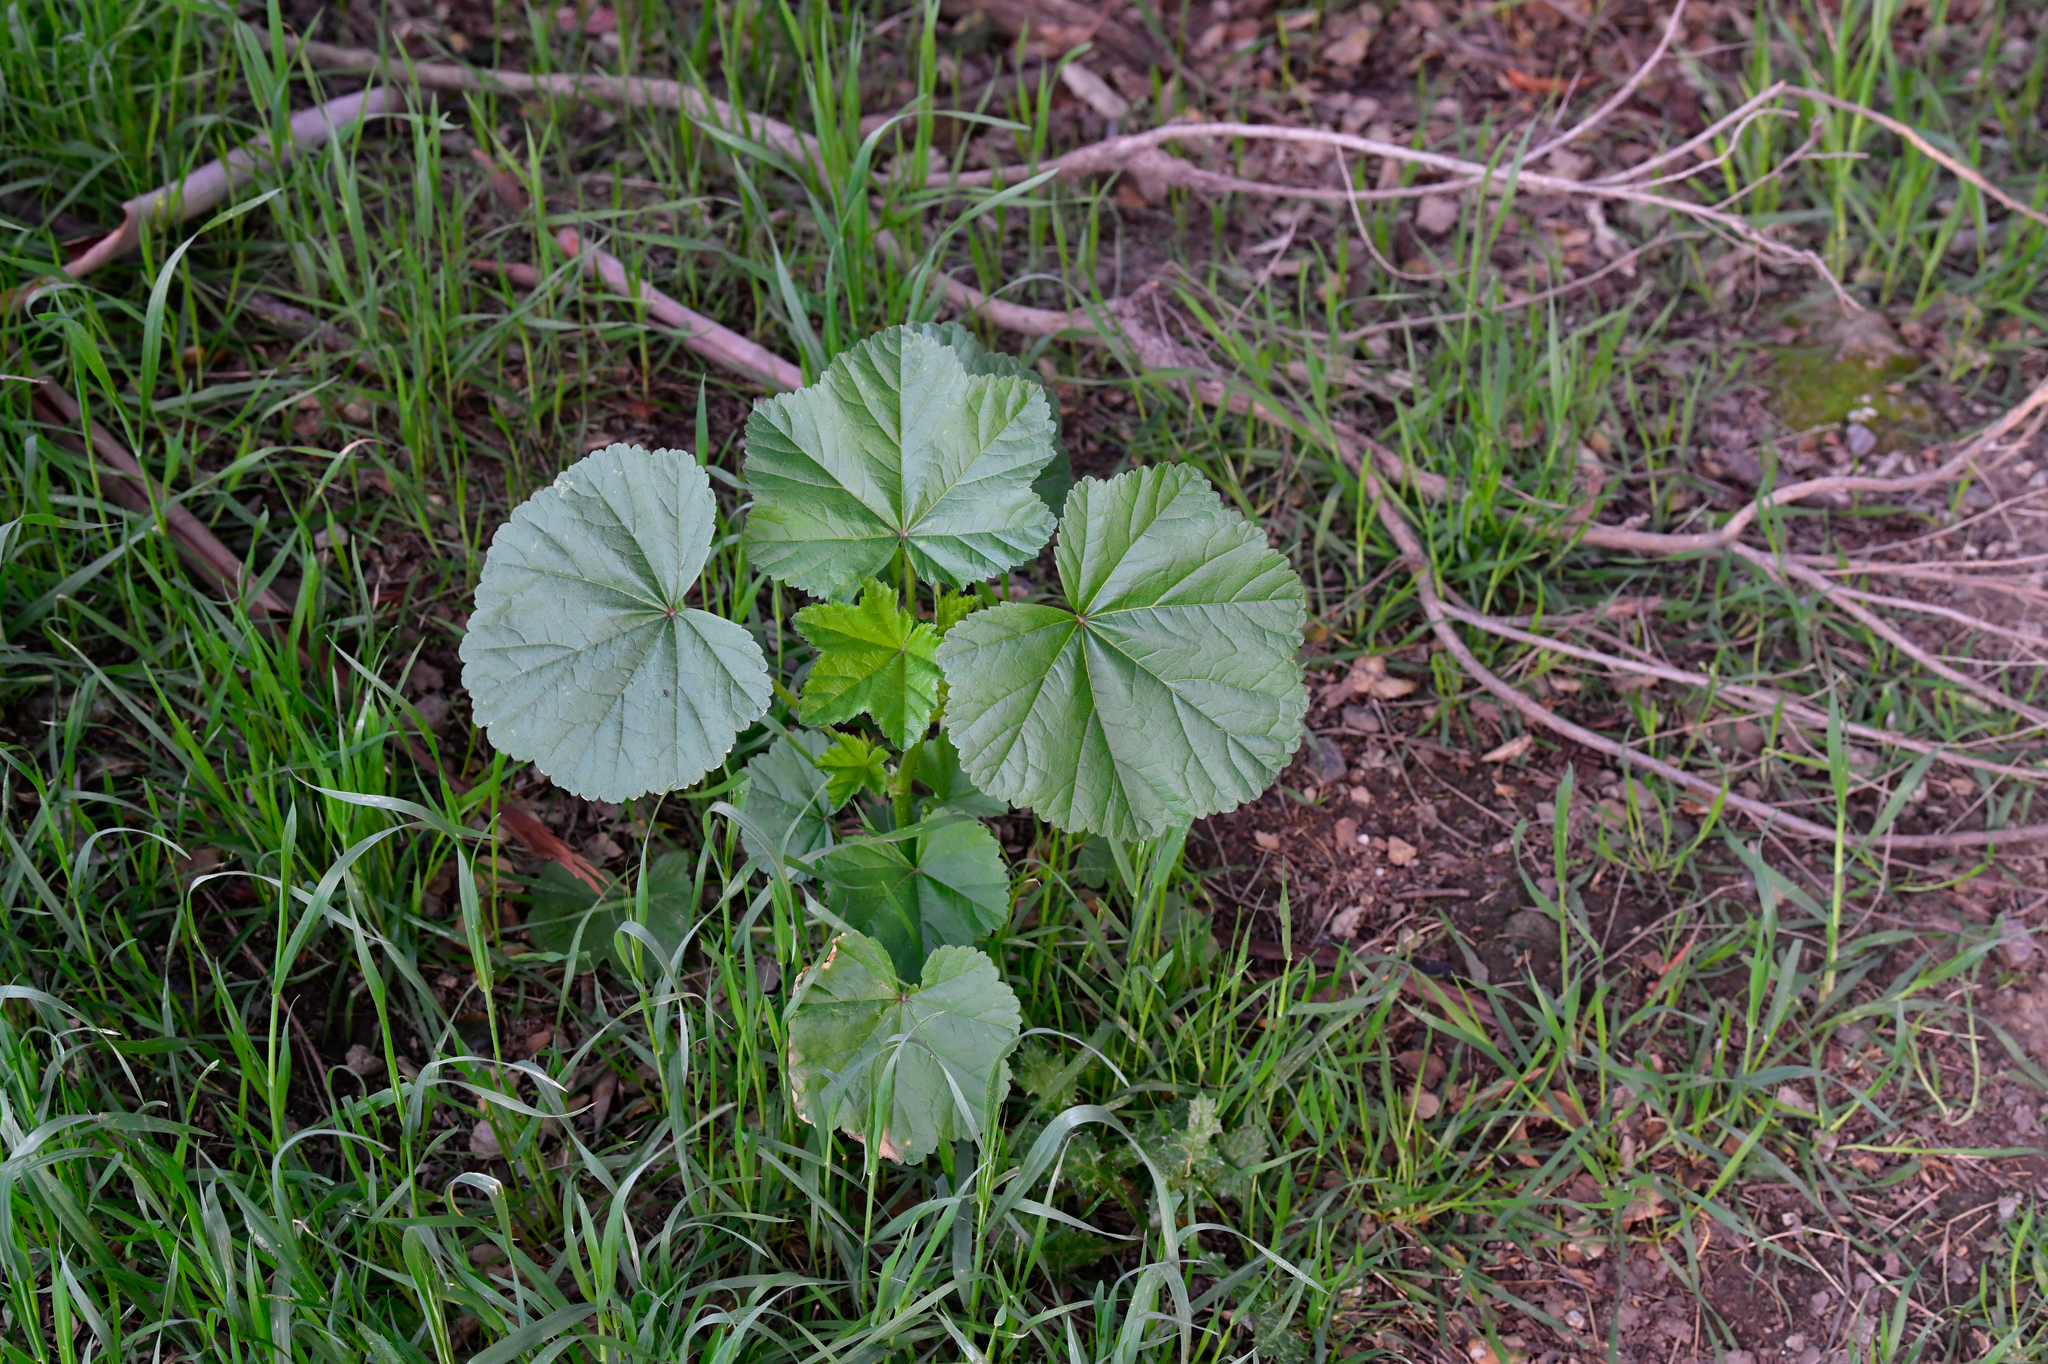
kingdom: Plantae
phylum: Tracheophyta
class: Magnoliopsida
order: Malvales
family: Malvaceae
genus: Malva
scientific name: Malva
